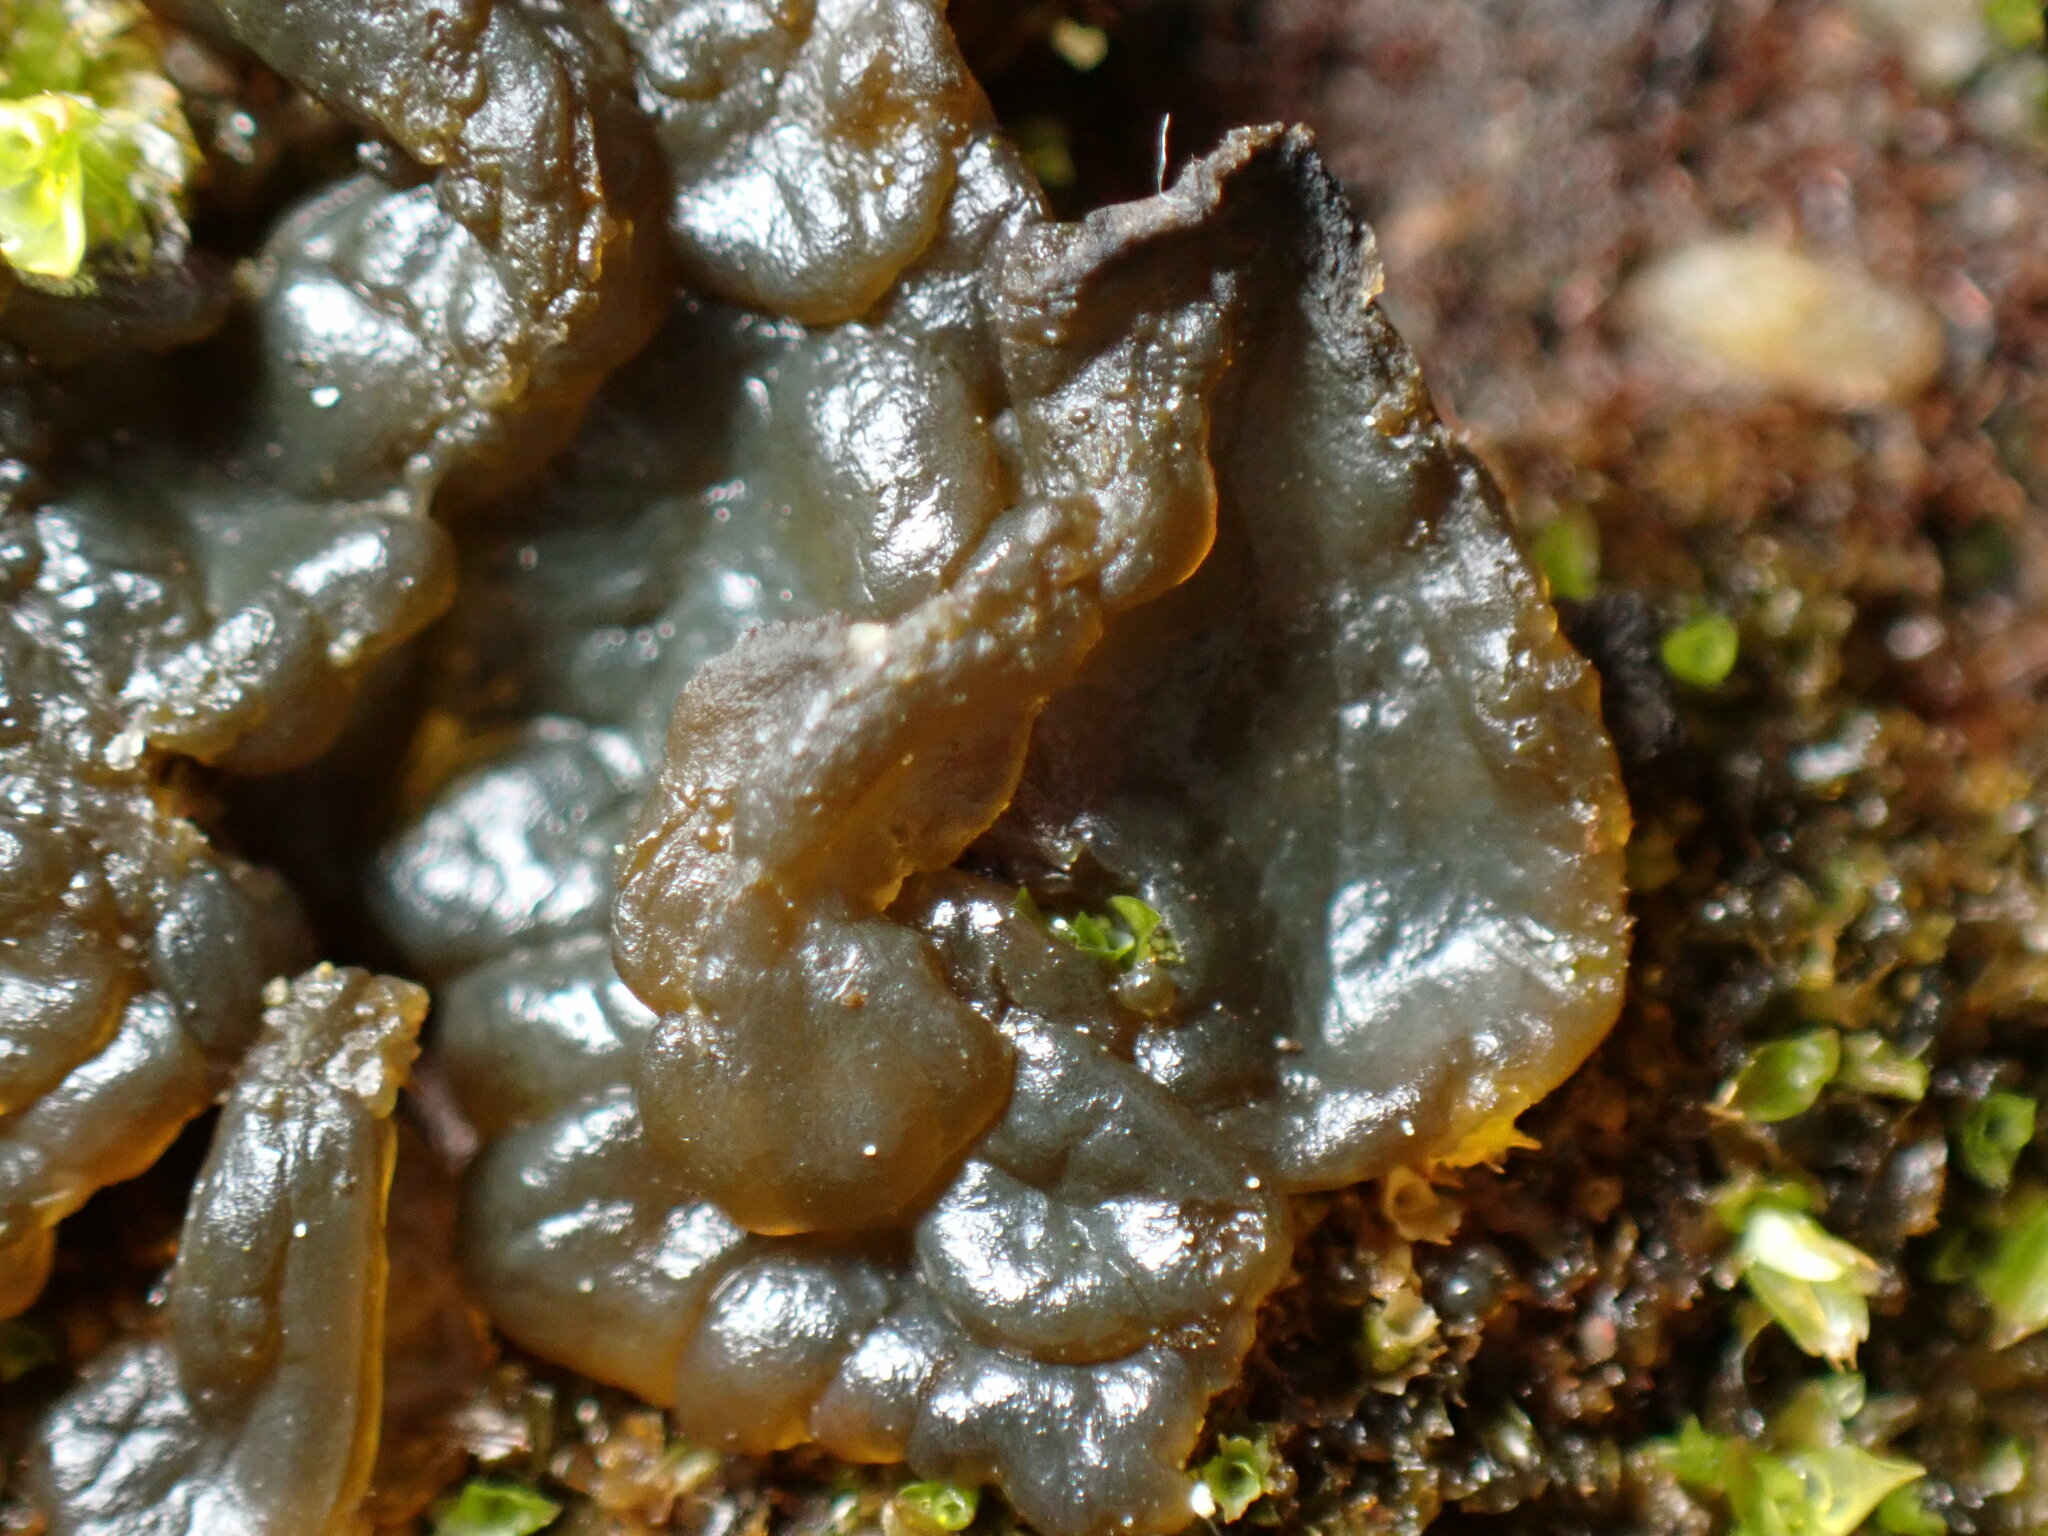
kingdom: Bacteria
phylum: Cyanobacteria
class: Cyanobacteriia
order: Cyanobacteriales
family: Nostocaceae
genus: Nostoc
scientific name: Nostoc commune
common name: Star jelly
